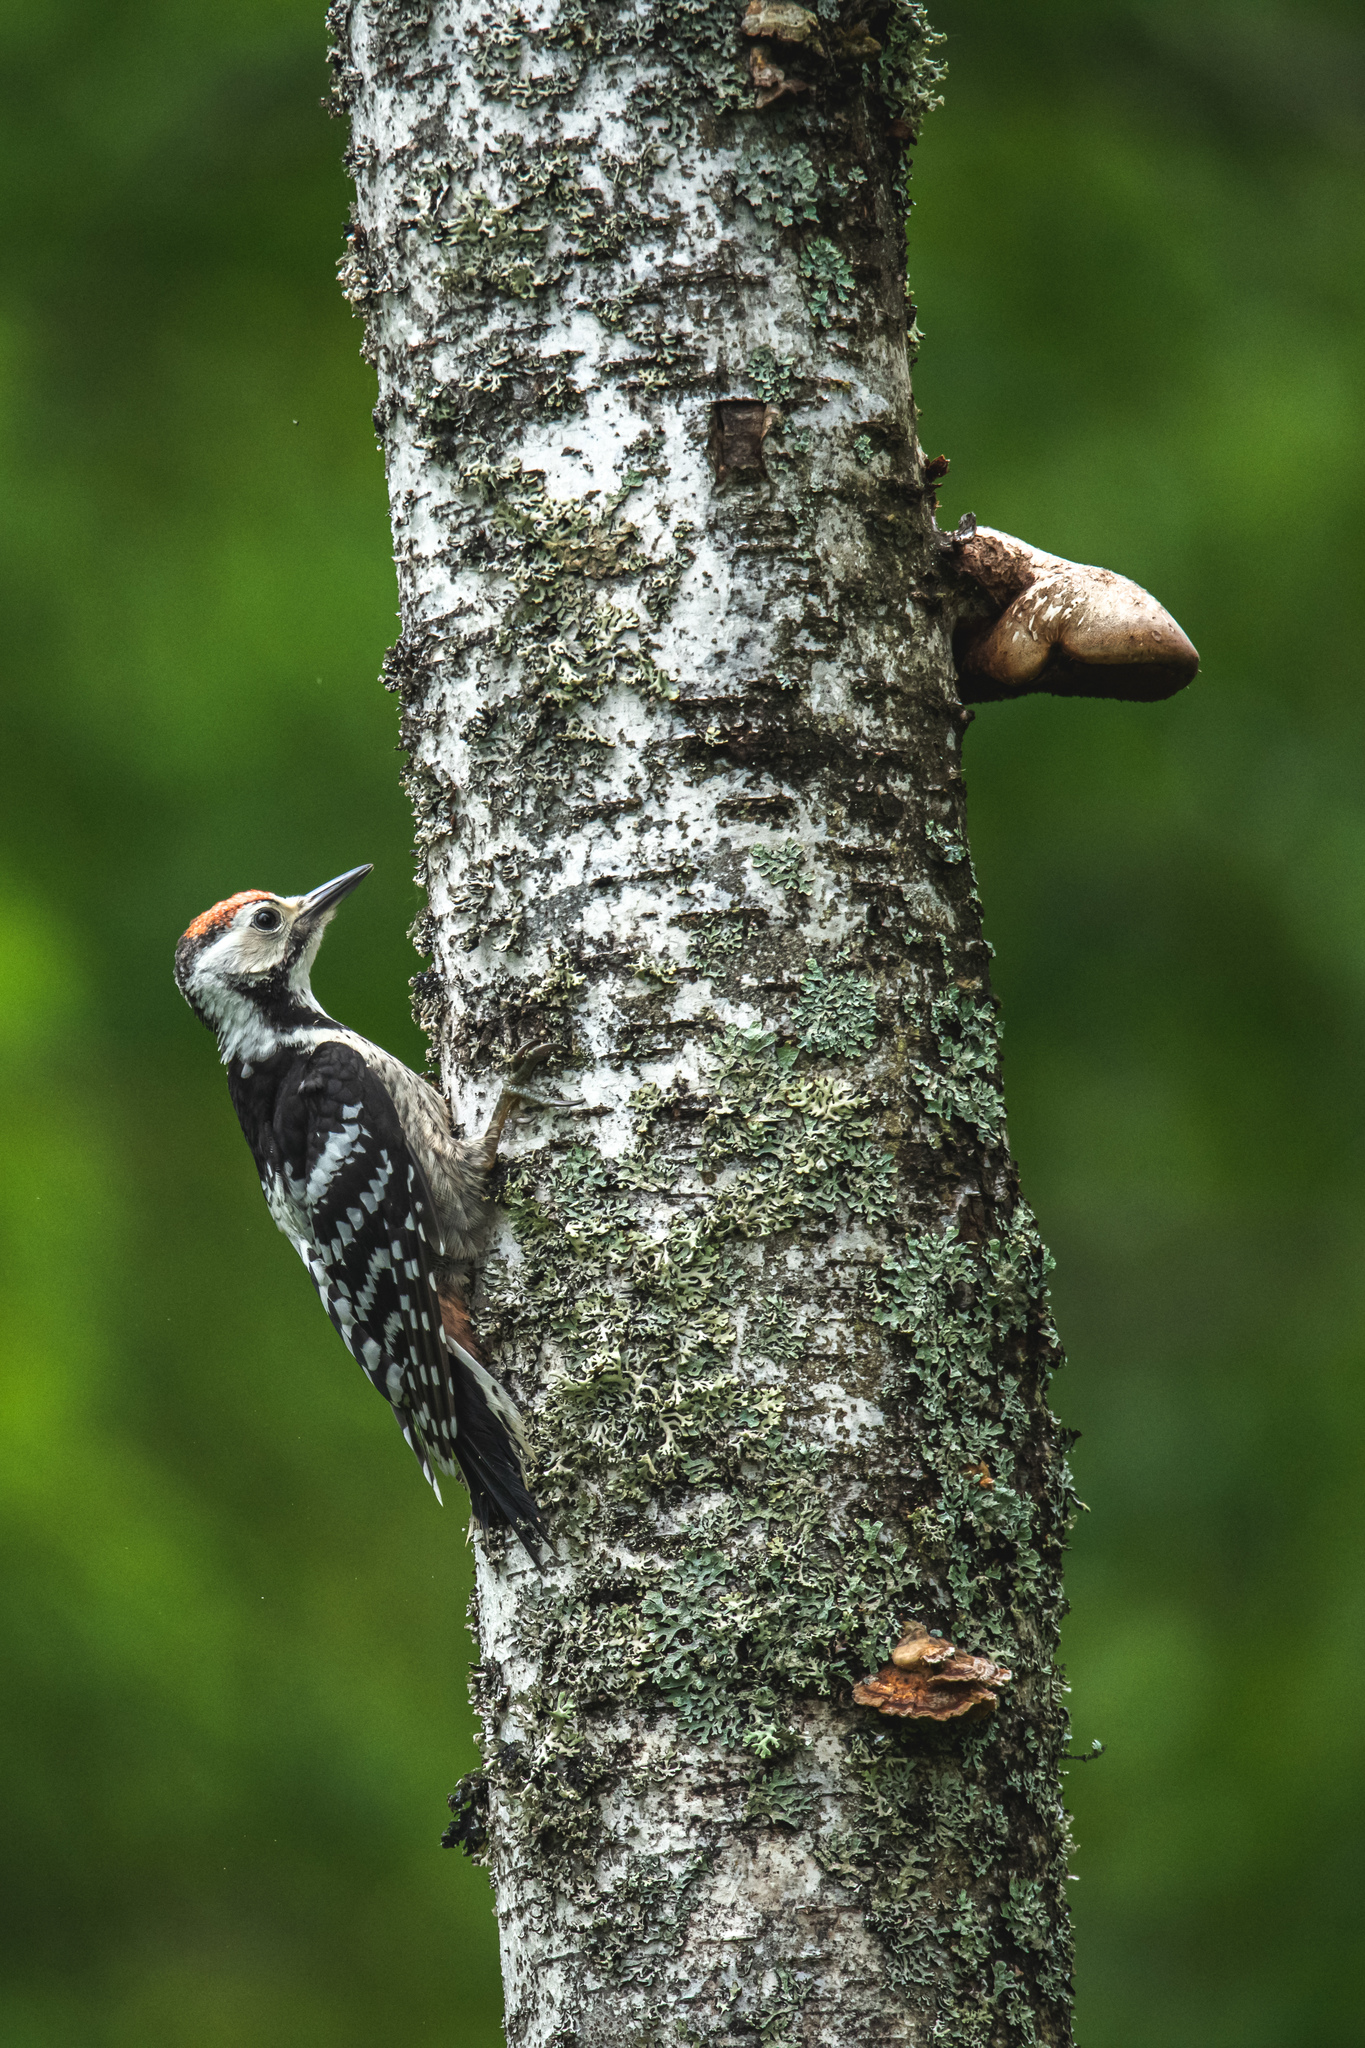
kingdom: Animalia
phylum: Chordata
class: Aves
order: Piciformes
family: Picidae
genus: Dendrocopos
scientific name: Dendrocopos leucotos
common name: White-backed woodpecker
